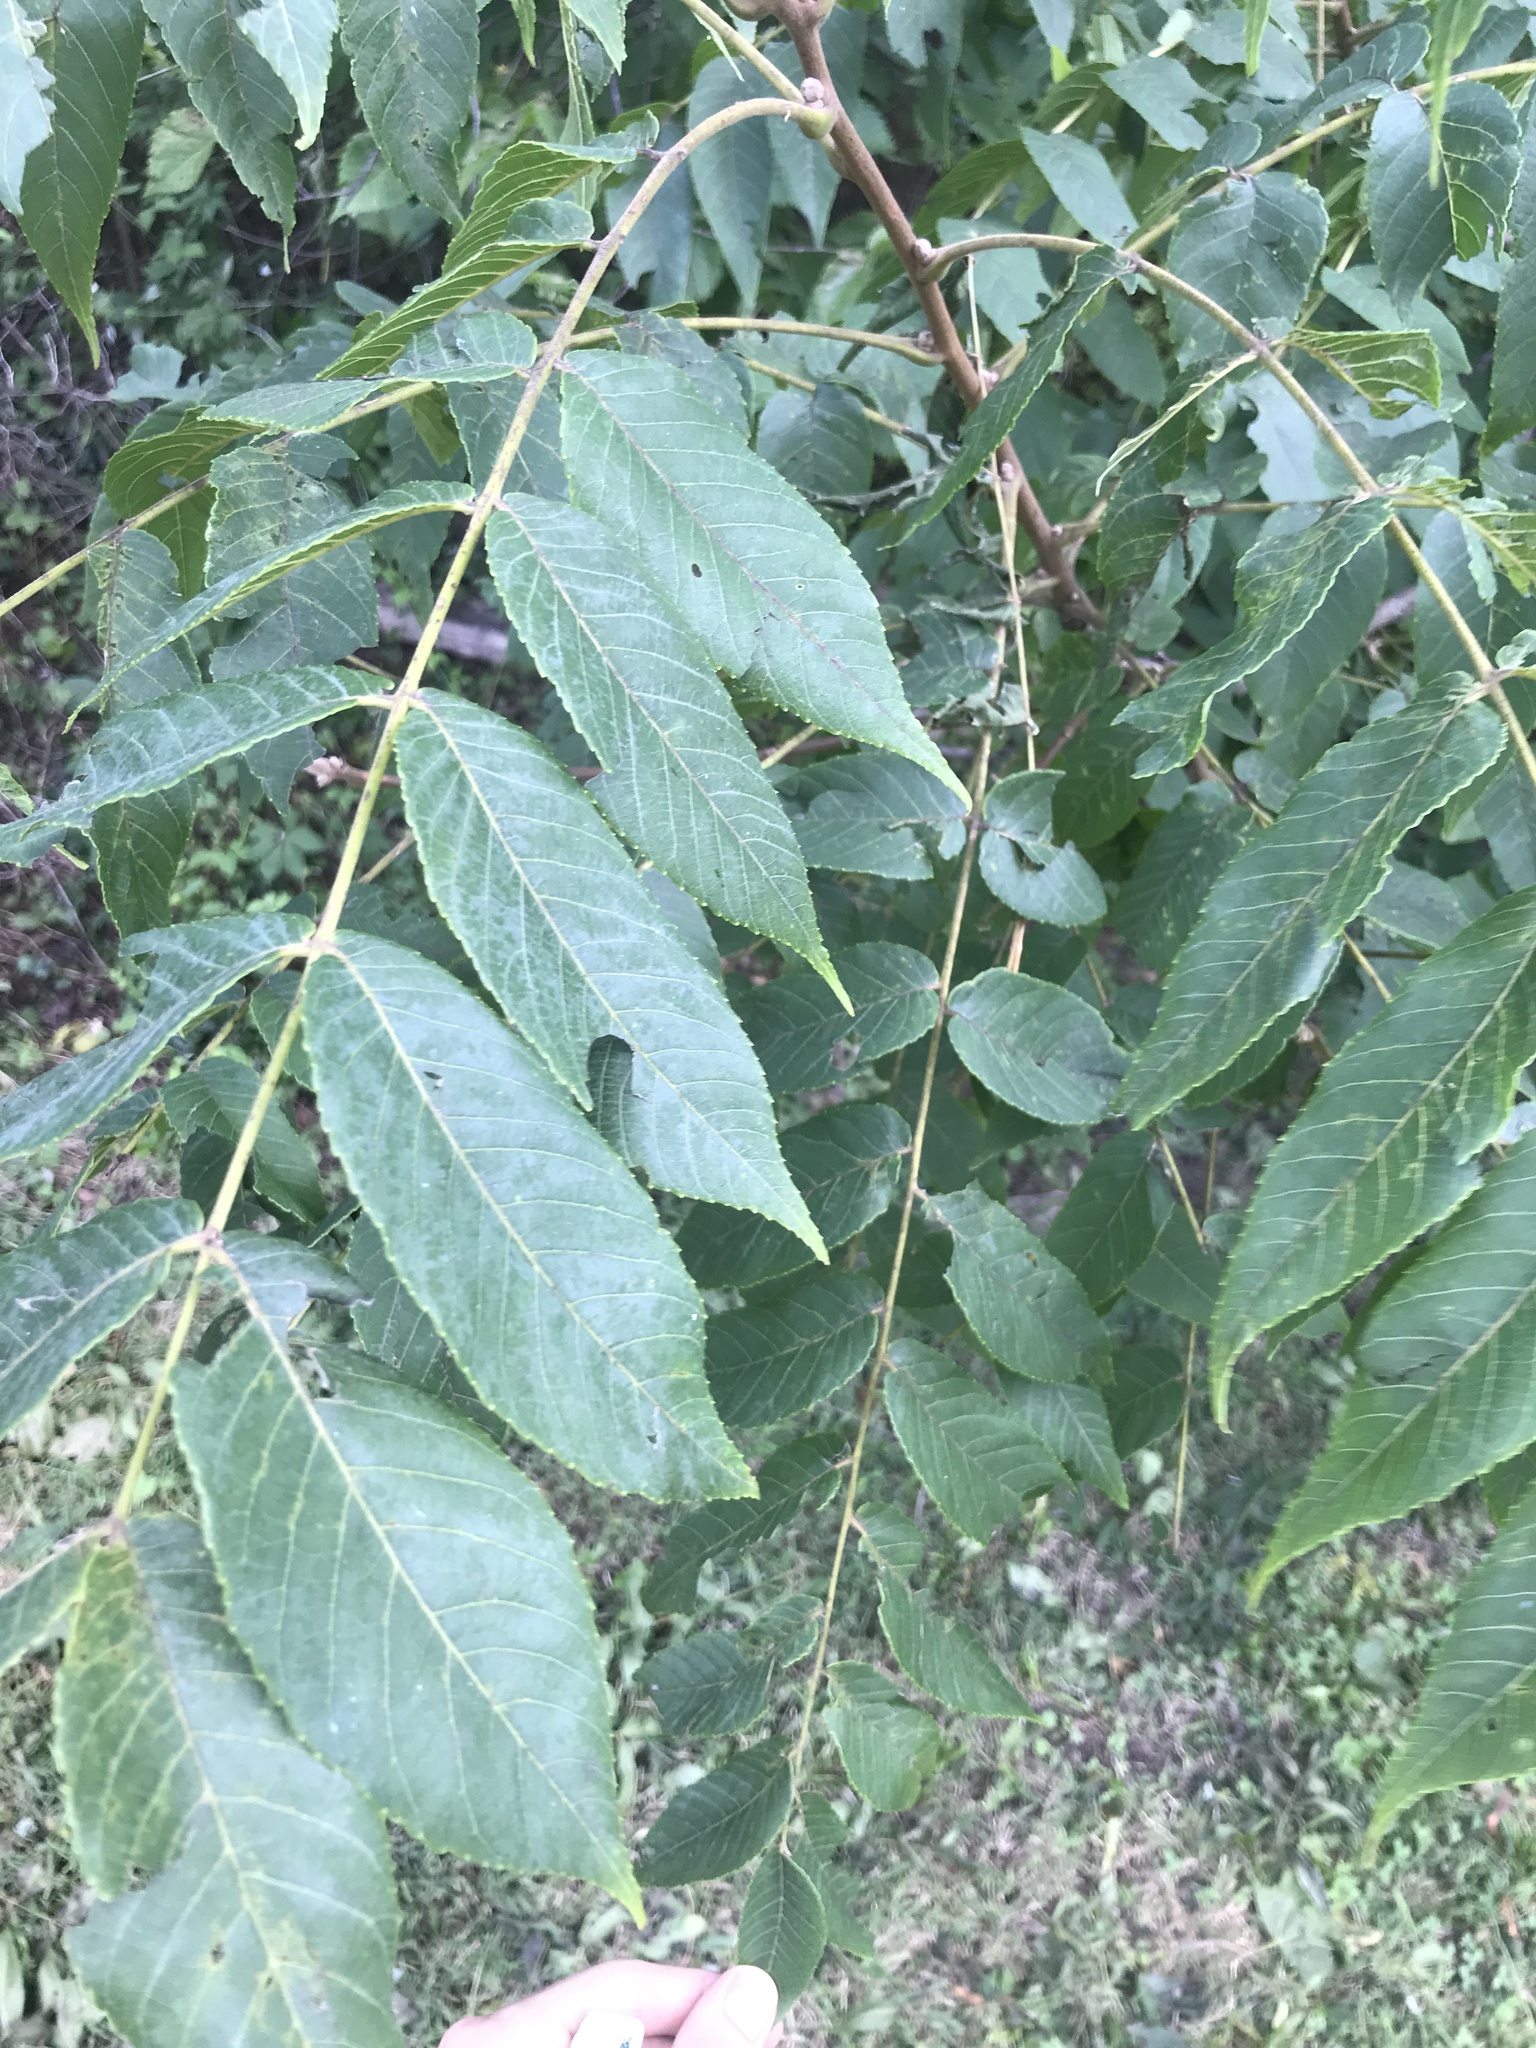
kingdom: Plantae
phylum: Tracheophyta
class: Magnoliopsida
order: Fagales
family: Juglandaceae
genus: Juglans
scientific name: Juglans nigra
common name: Black walnut
